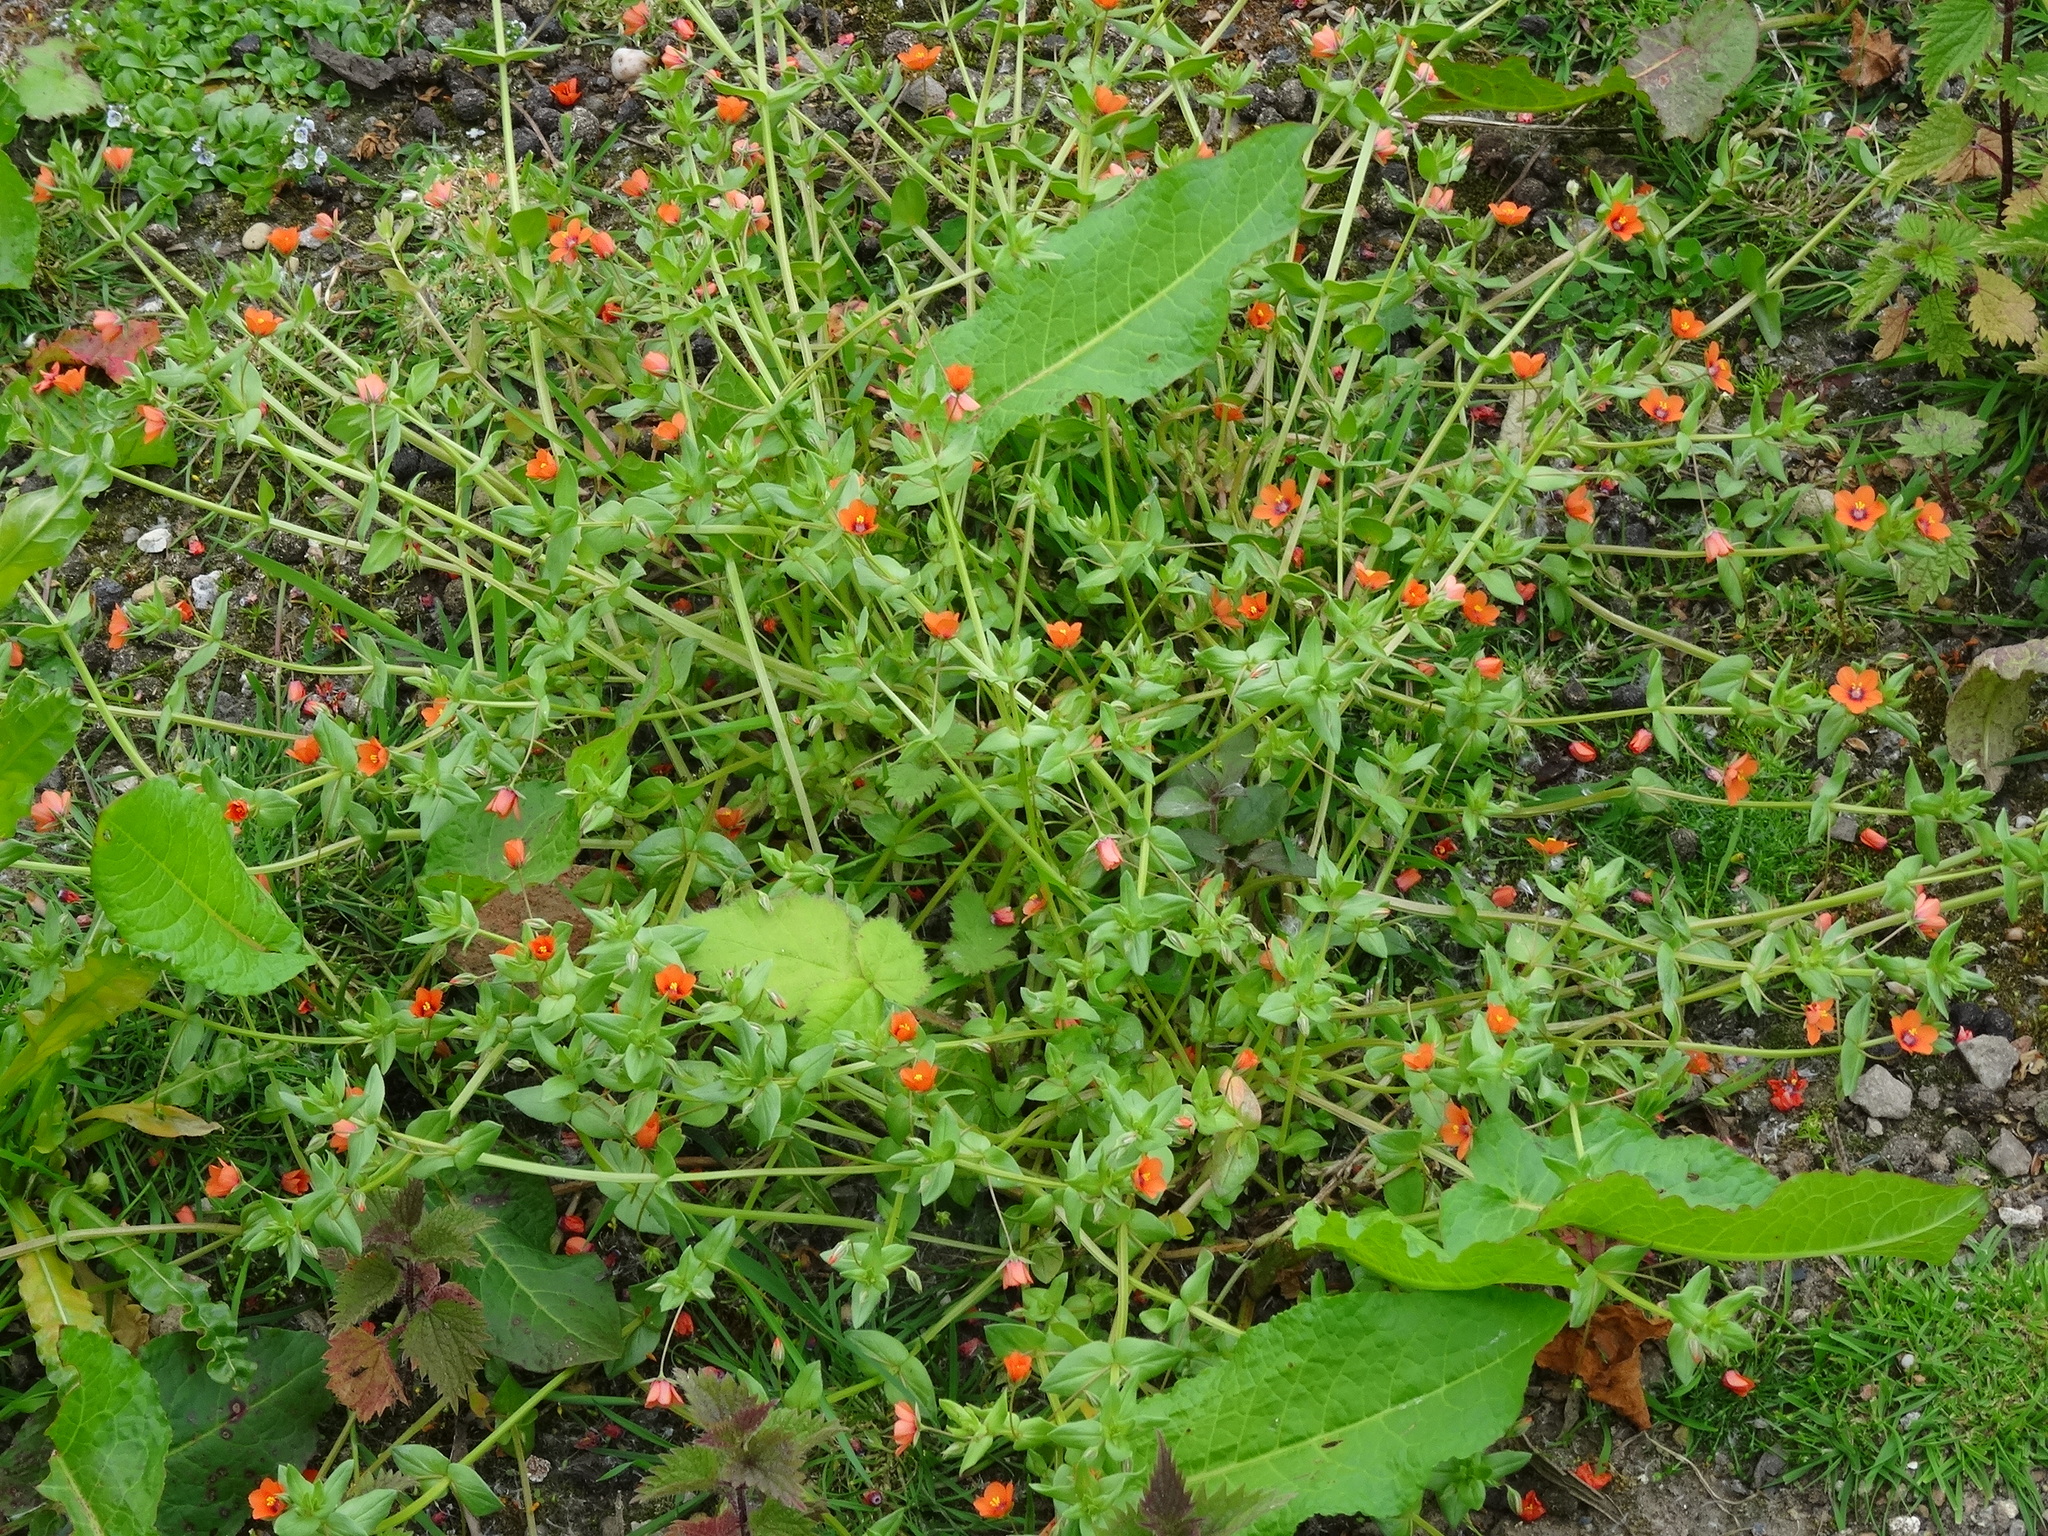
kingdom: Plantae
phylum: Tracheophyta
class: Magnoliopsida
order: Ericales
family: Primulaceae
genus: Lysimachia
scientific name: Lysimachia arvensis
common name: Scarlet pimpernel
